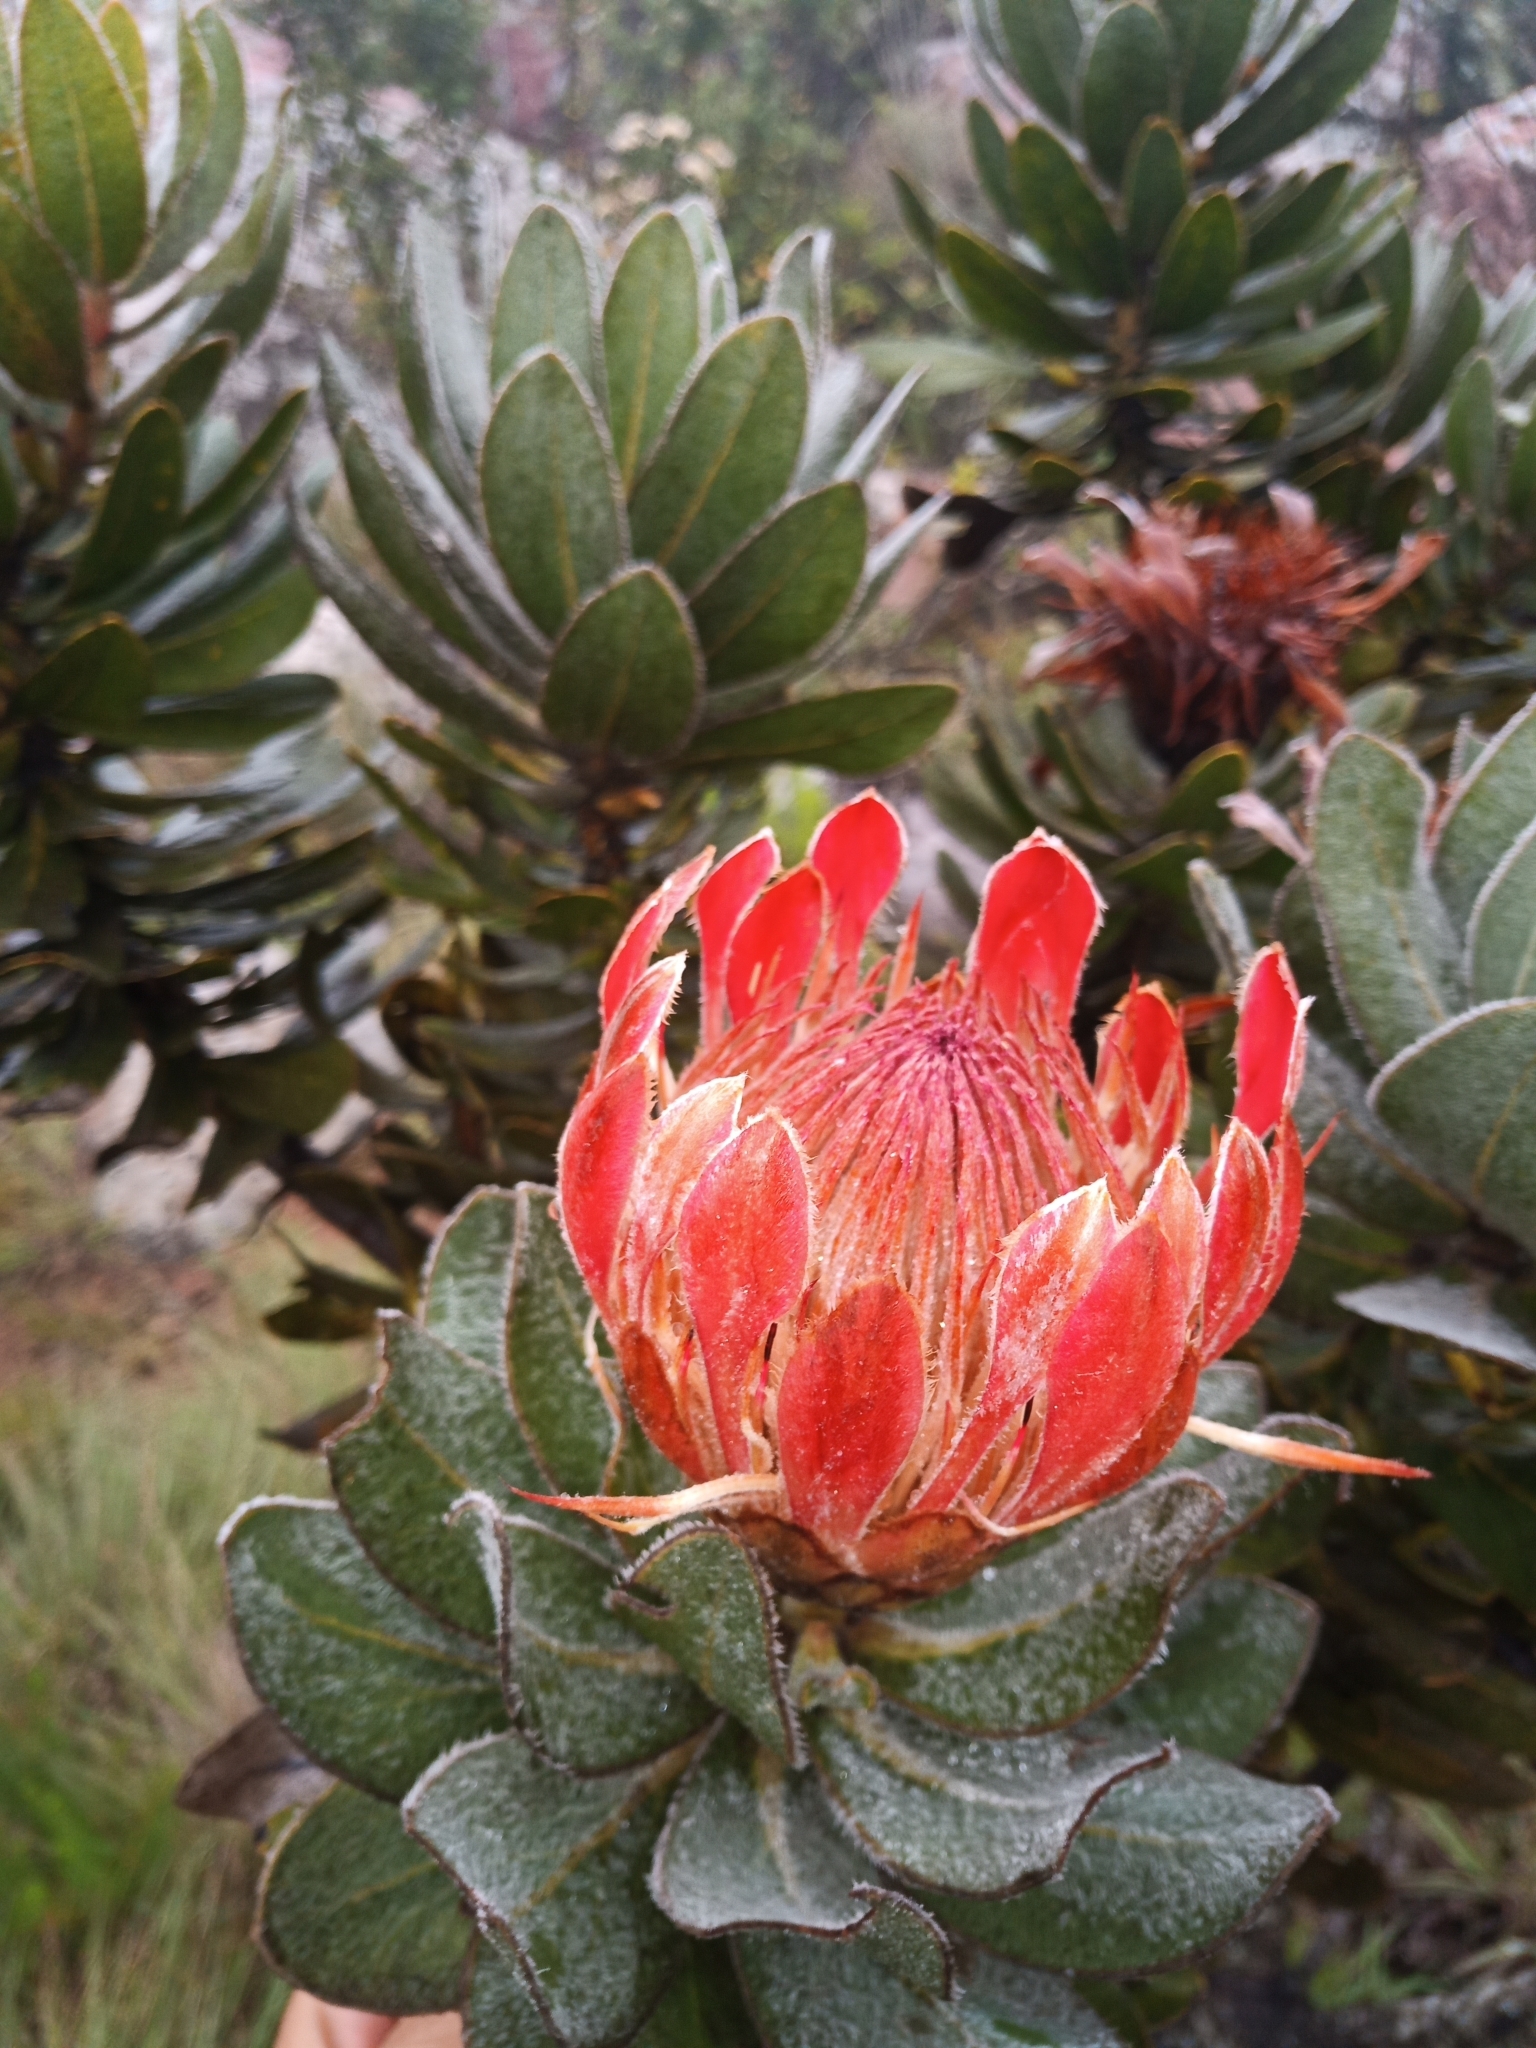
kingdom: Plantae
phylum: Tracheophyta
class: Magnoliopsida
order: Proteales
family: Proteaceae
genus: Protea
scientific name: Protea roupelliae
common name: Silver sugarbush
